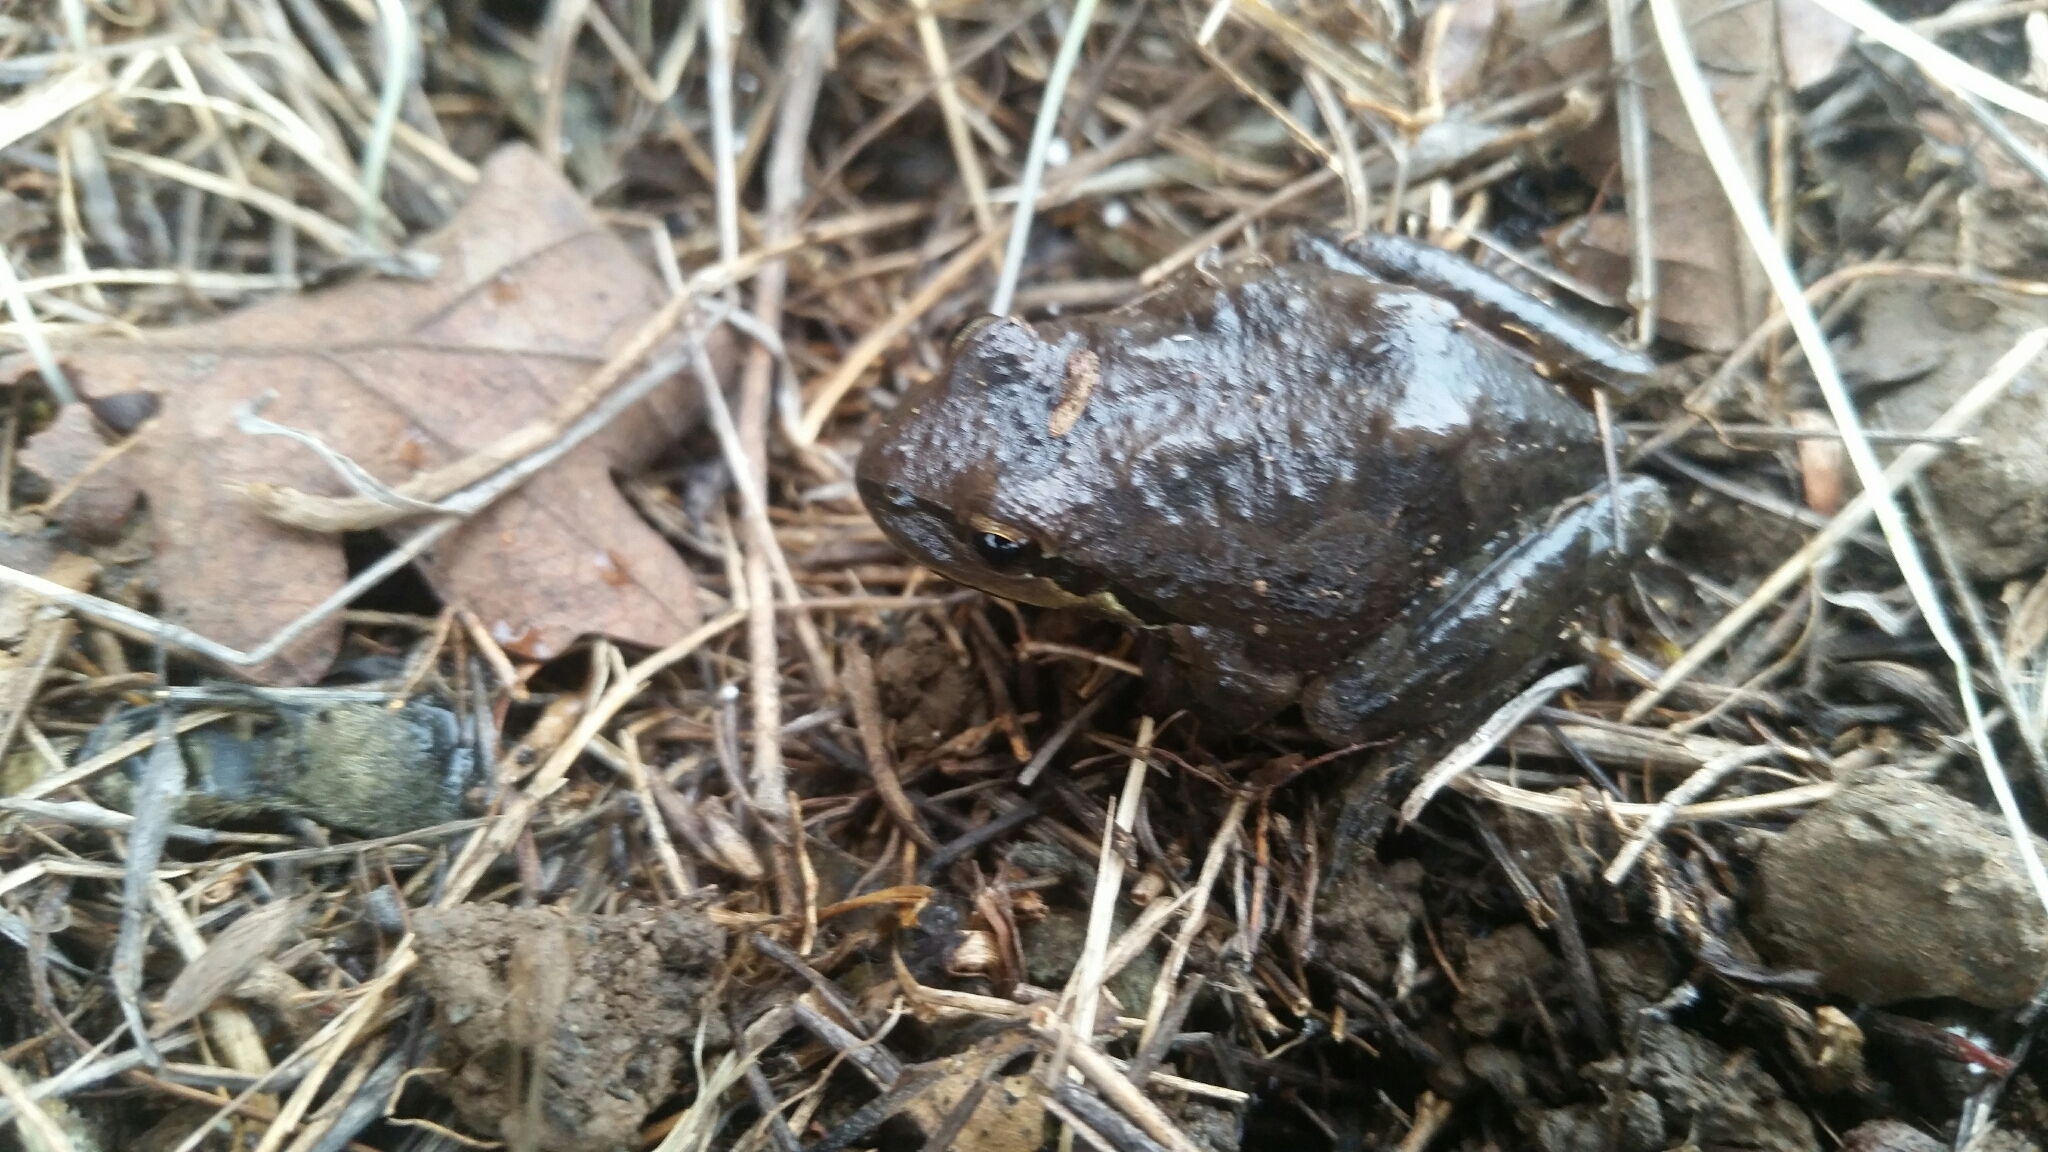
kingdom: Animalia
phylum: Chordata
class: Amphibia
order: Anura
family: Hylidae
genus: Pseudacris
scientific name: Pseudacris regilla
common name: Pacific chorus frog
